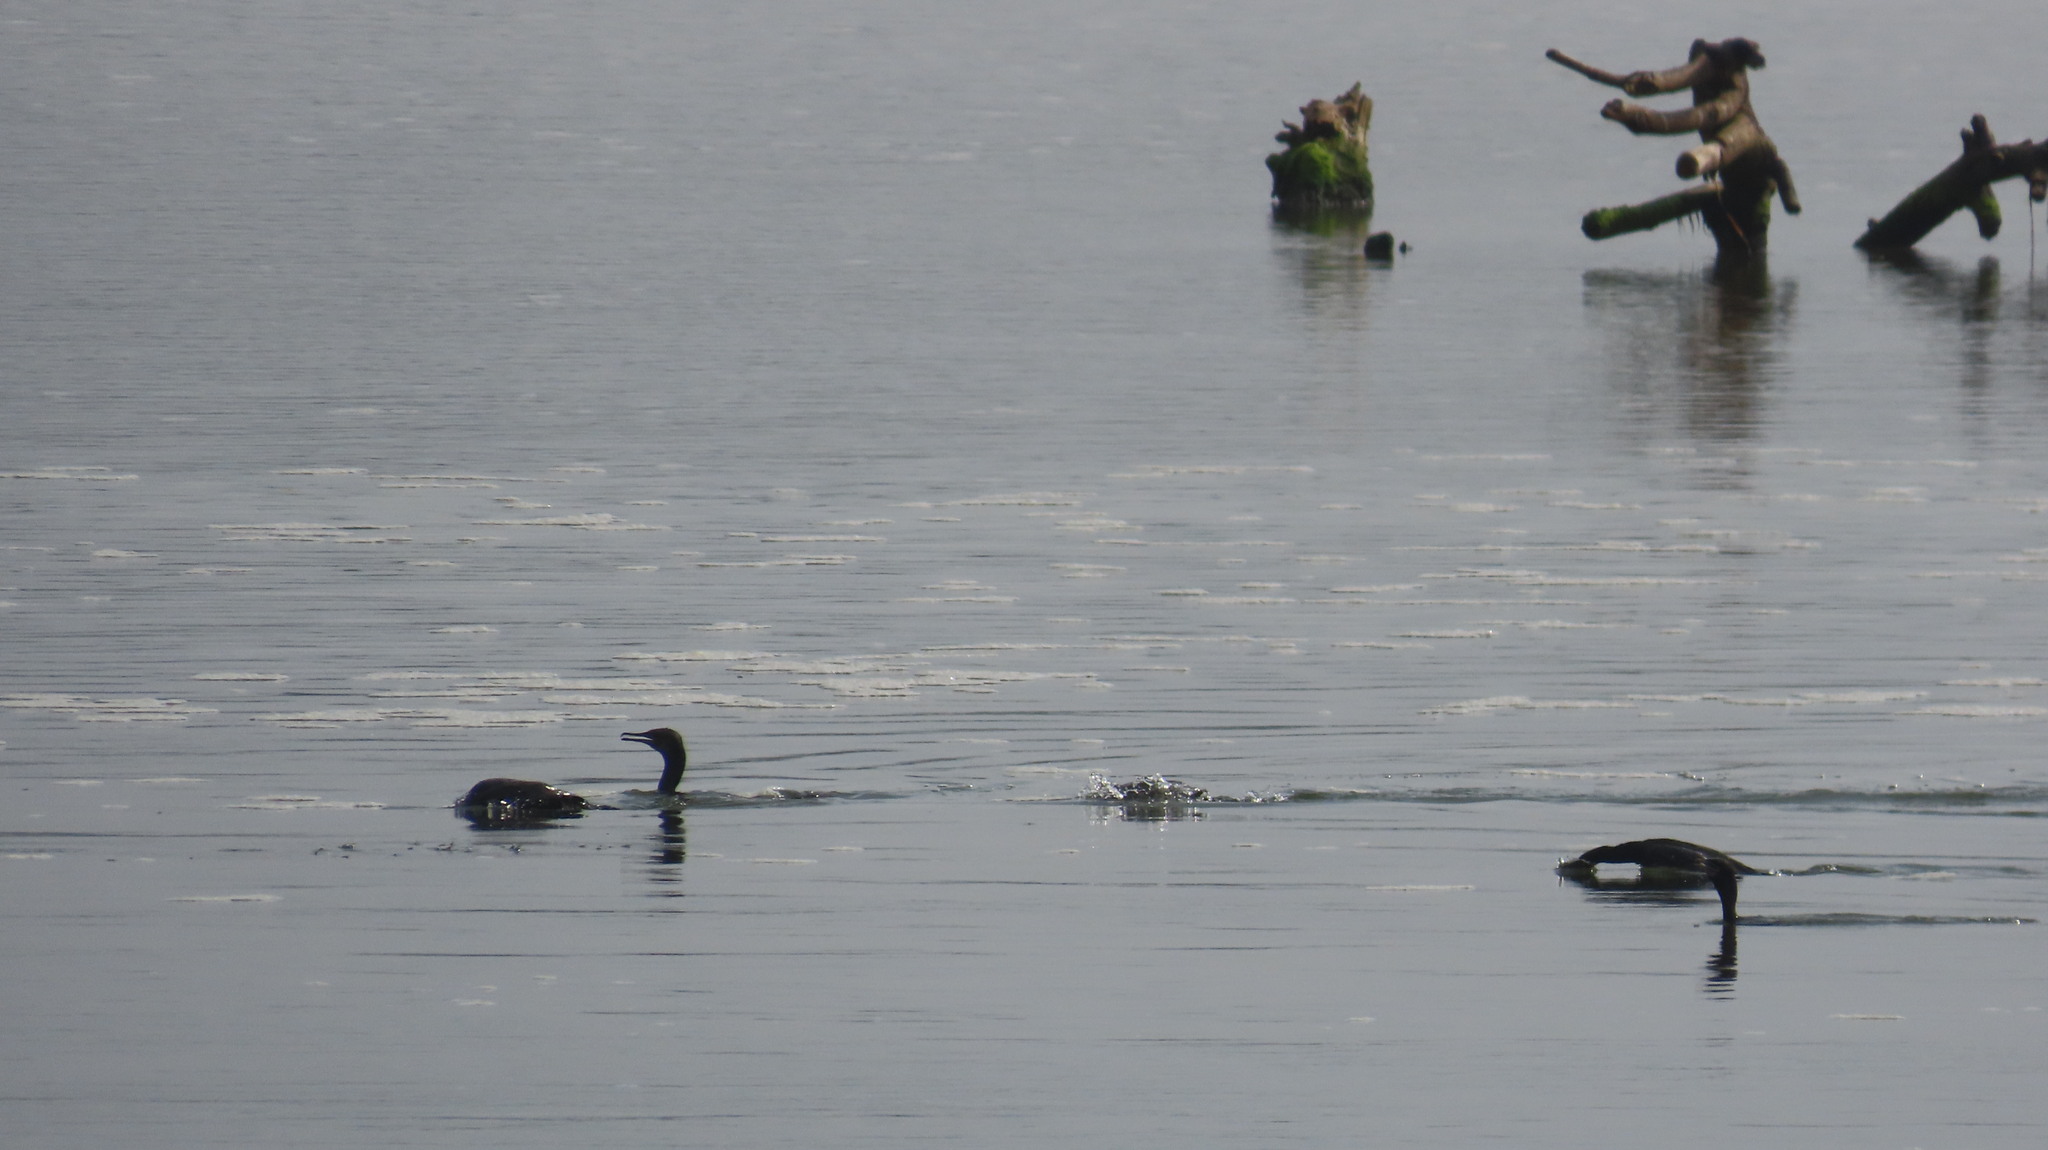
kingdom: Animalia
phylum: Chordata
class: Aves
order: Suliformes
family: Phalacrocoracidae
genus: Phalacrocorax
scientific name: Phalacrocorax fuscicollis
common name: Indian cormorant
